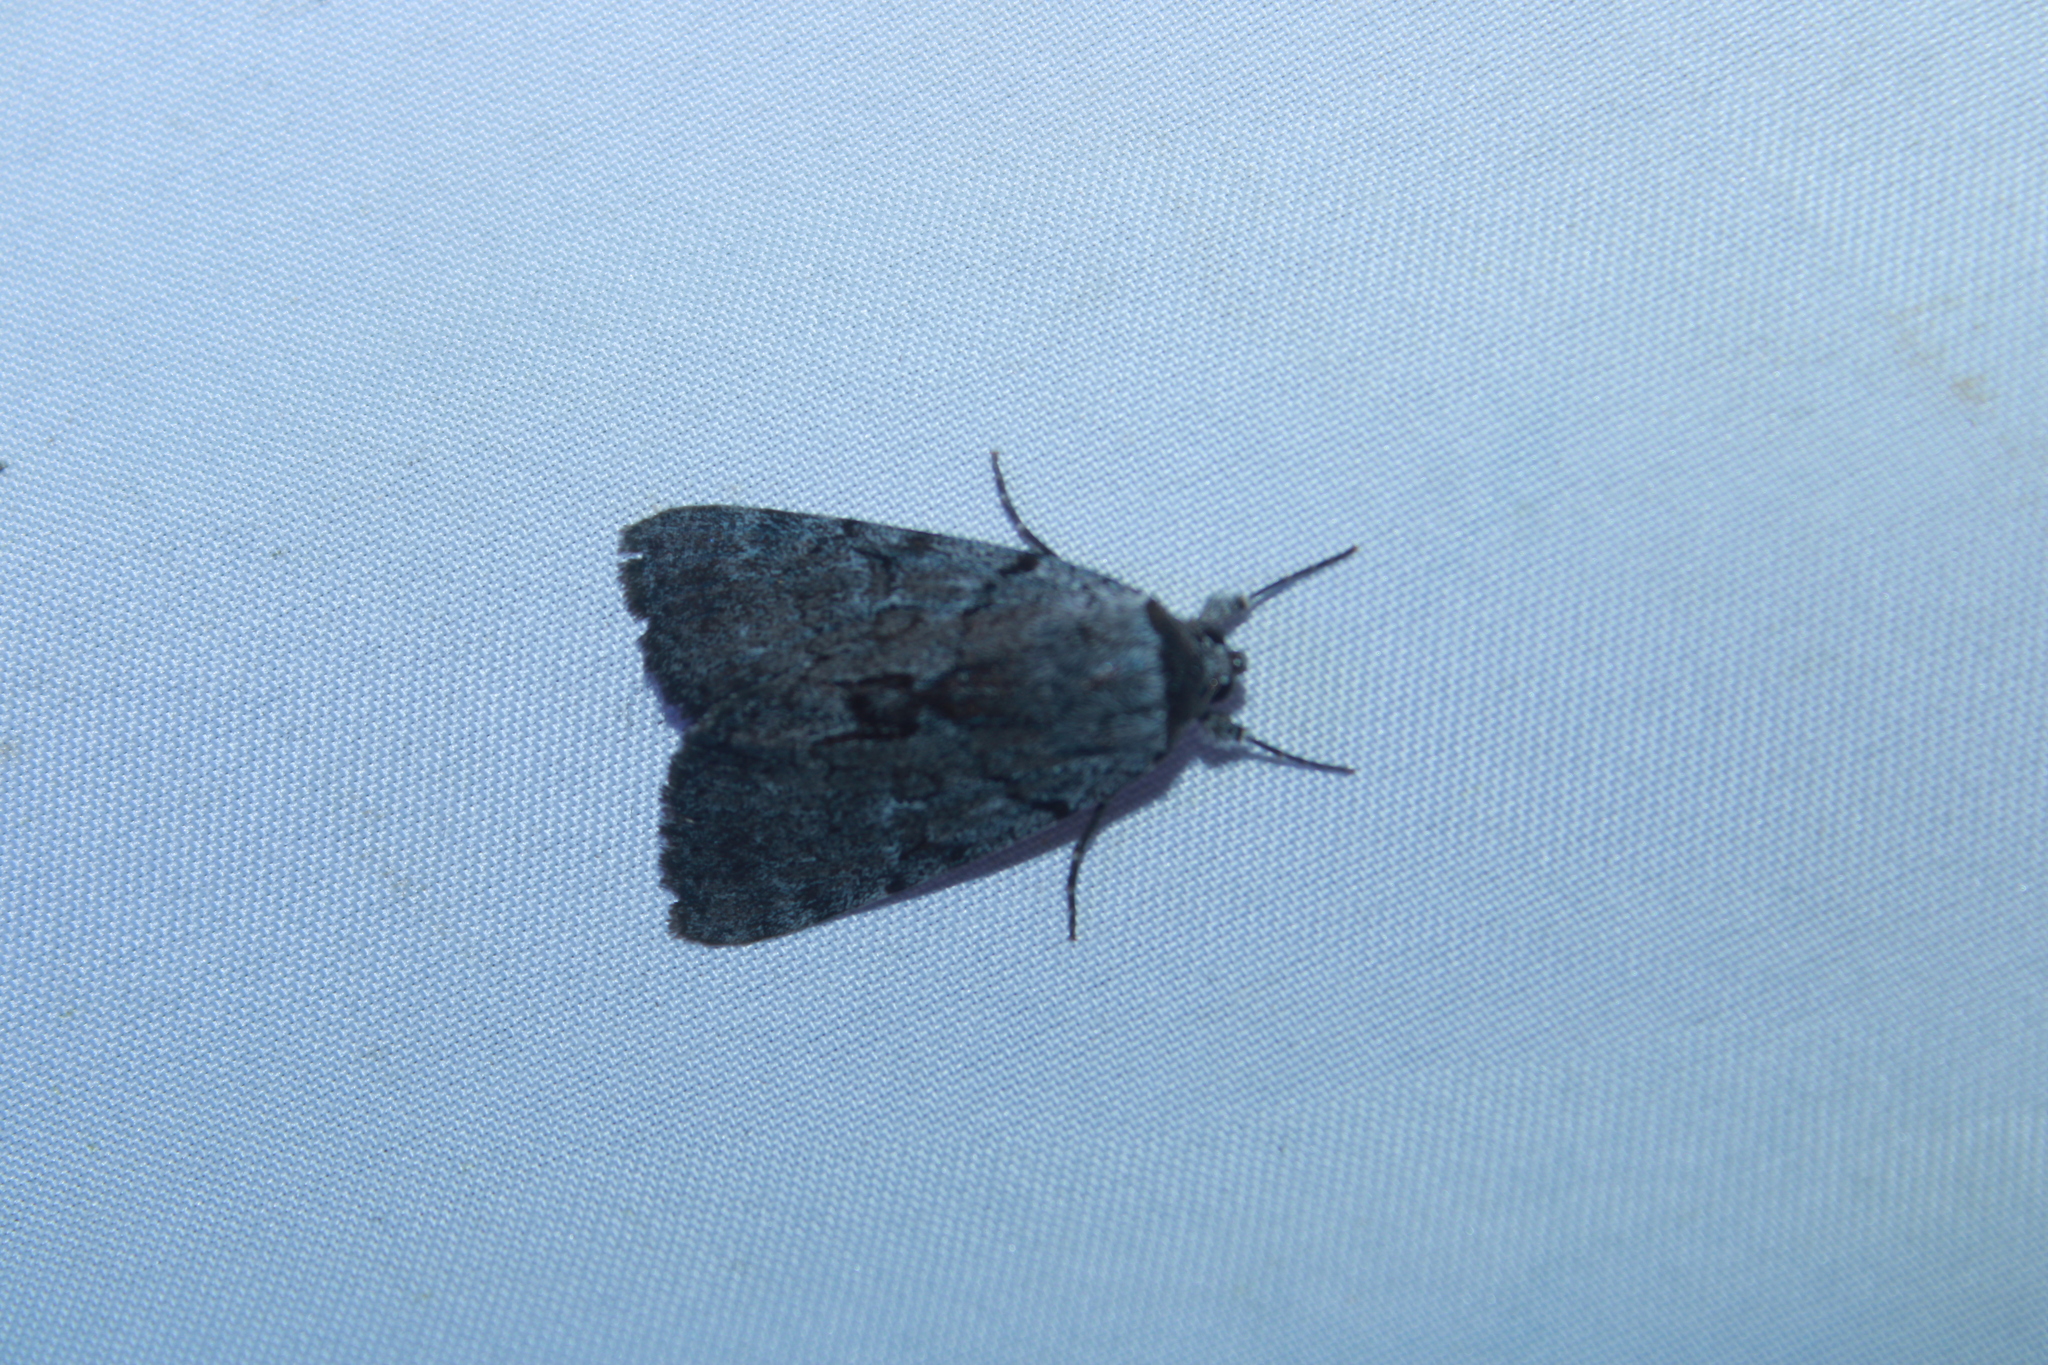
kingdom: Animalia
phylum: Arthropoda
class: Insecta
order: Lepidoptera
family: Erebidae
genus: Catocala
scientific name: Catocala sordida
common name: Sordid underwing
